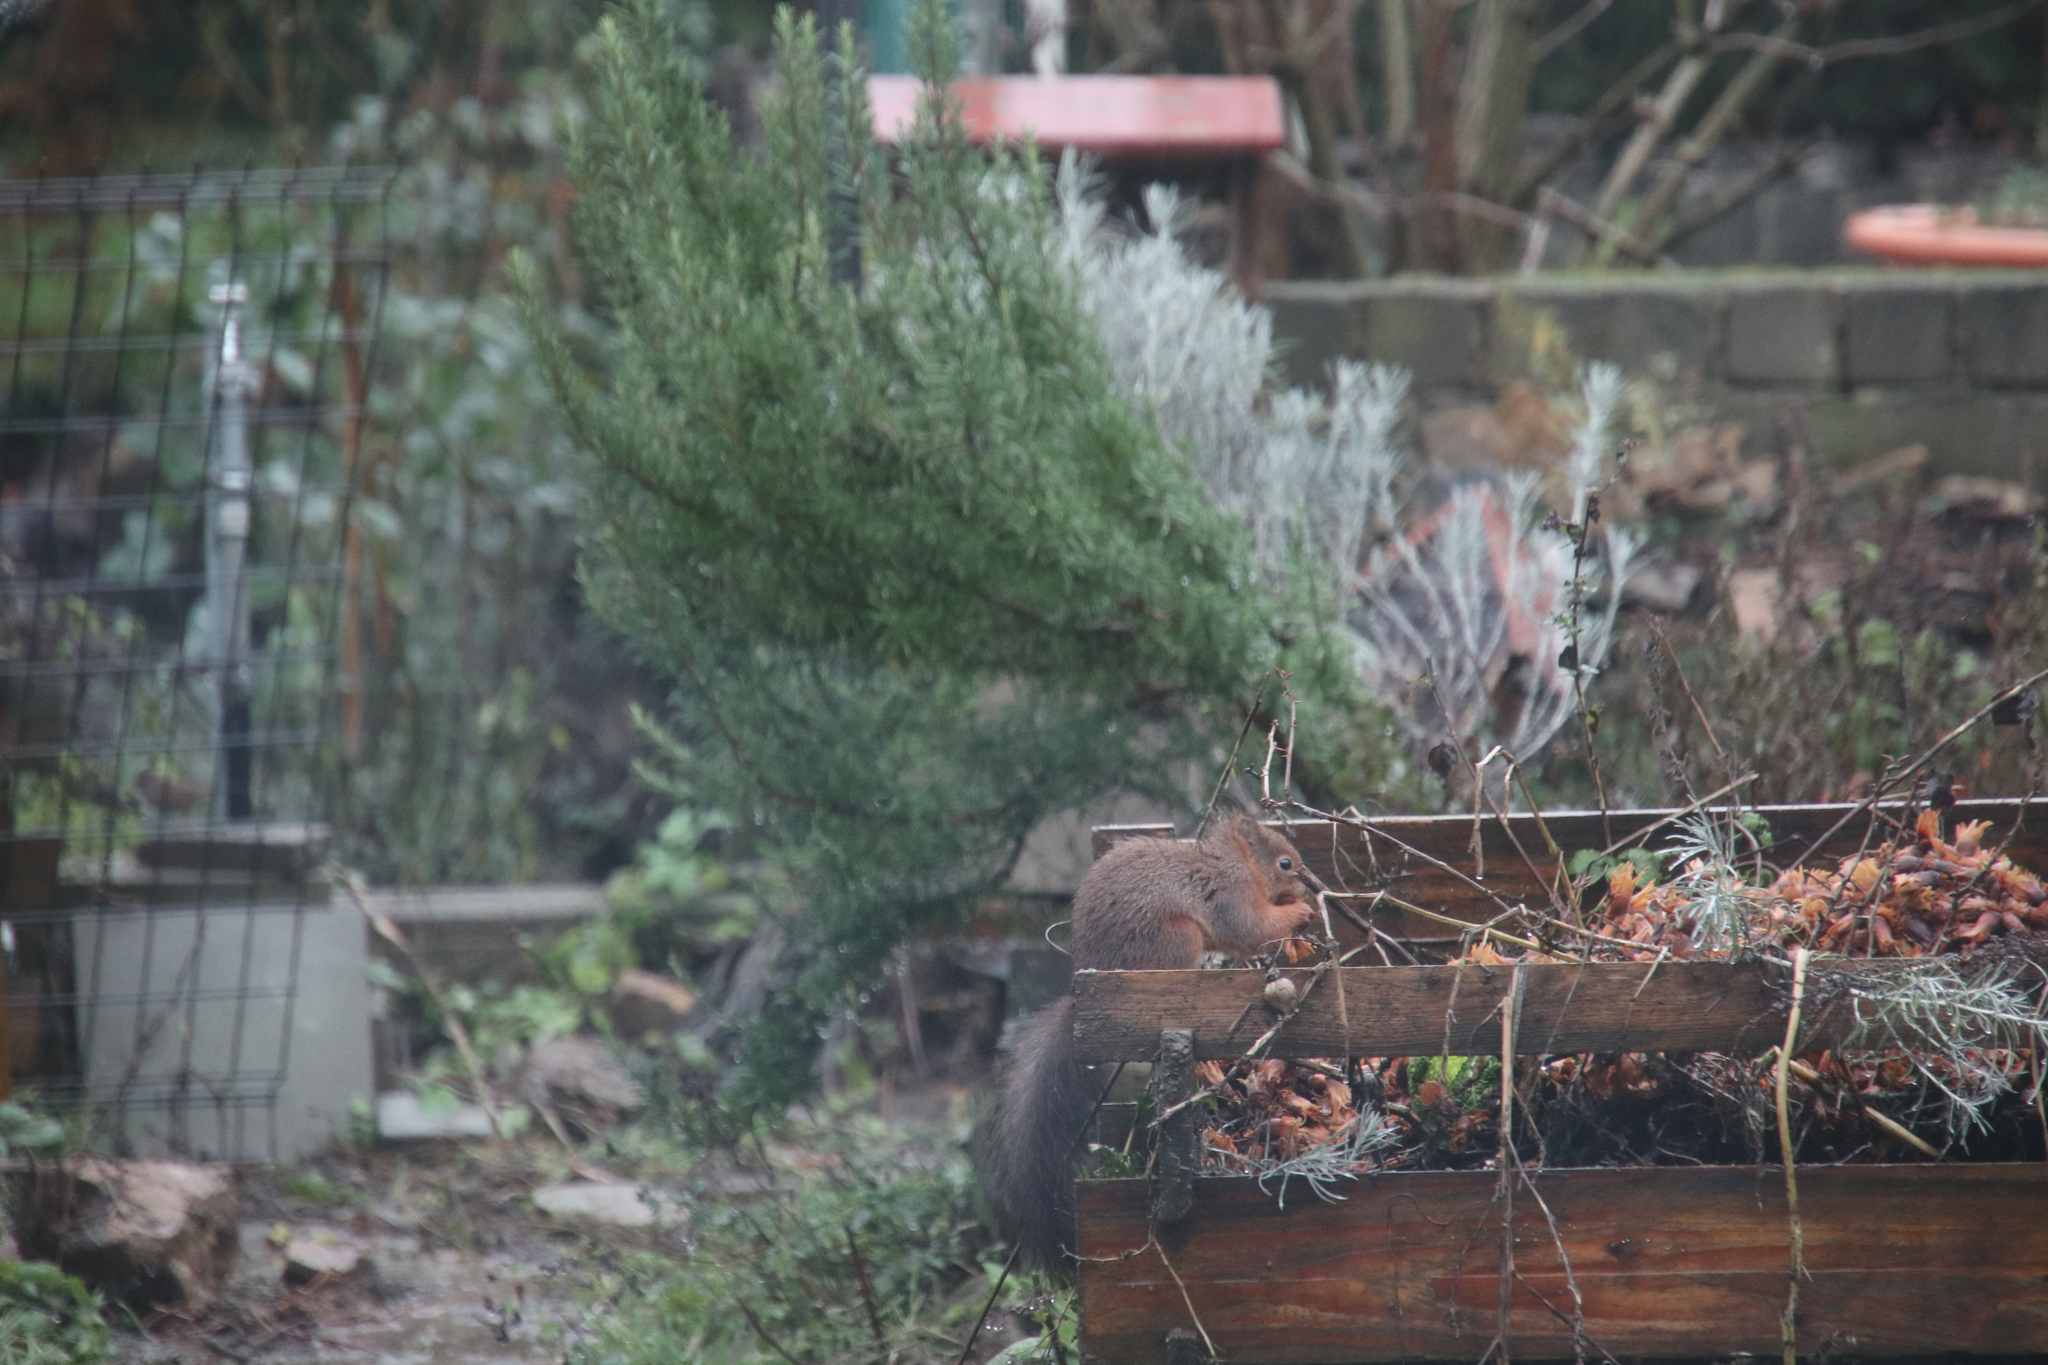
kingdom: Animalia
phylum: Chordata
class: Mammalia
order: Rodentia
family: Sciuridae
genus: Sciurus
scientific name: Sciurus vulgaris
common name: Eurasian red squirrel
